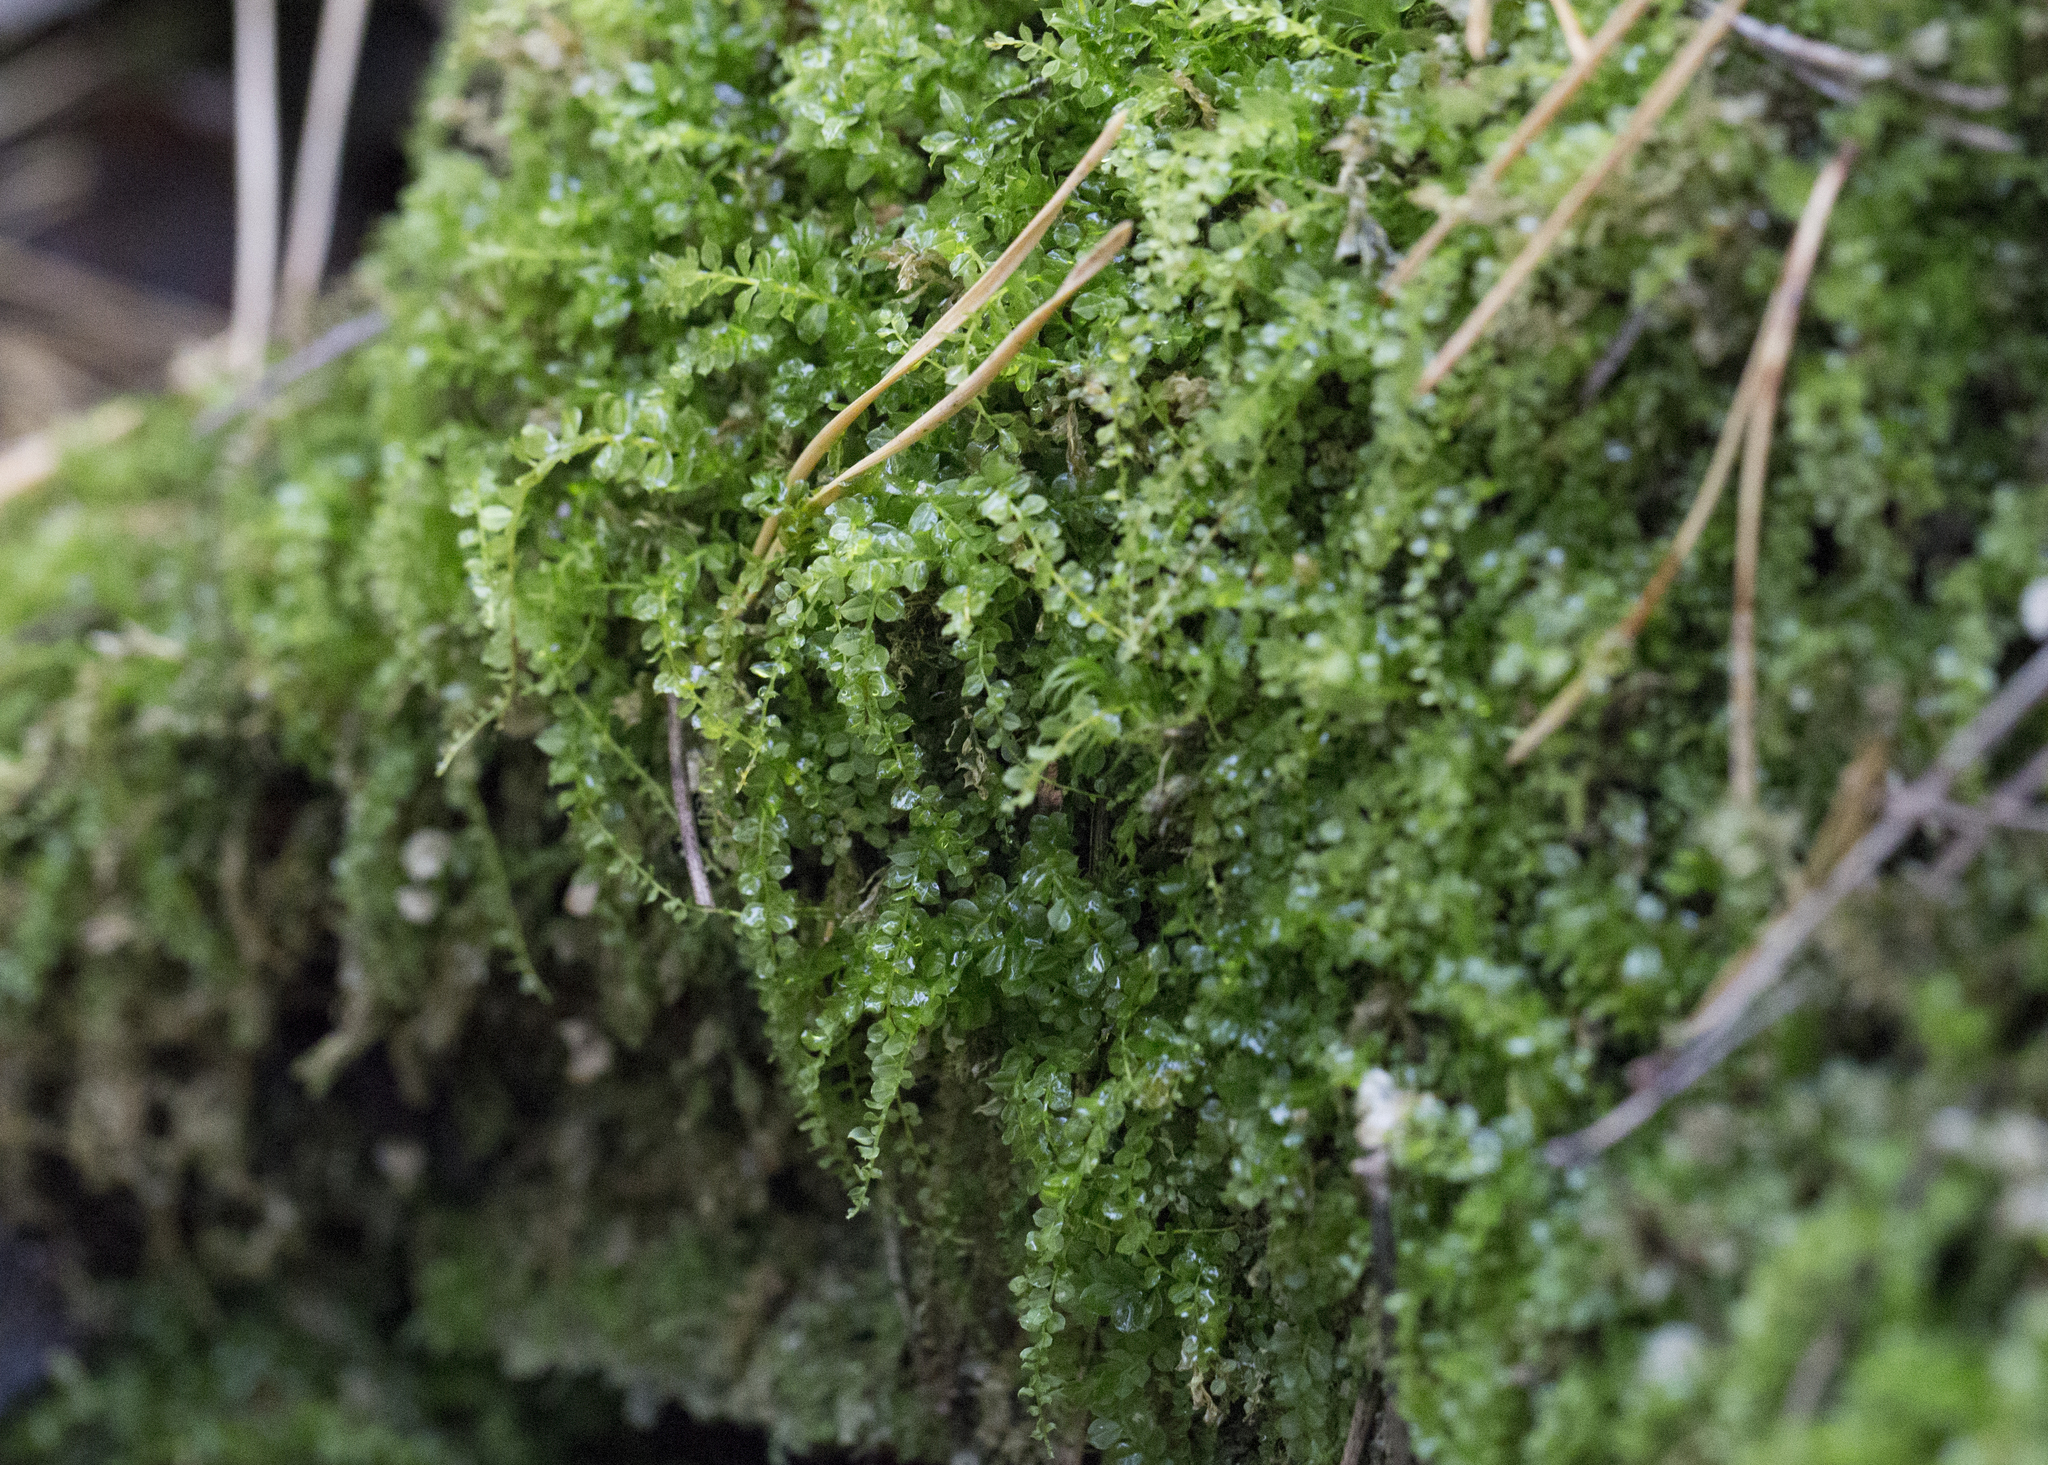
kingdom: Plantae
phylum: Bryophyta
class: Bryopsida
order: Bryales
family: Mniaceae
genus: Plagiomnium
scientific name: Plagiomnium cuspidatum
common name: Woodsy leafy moss
